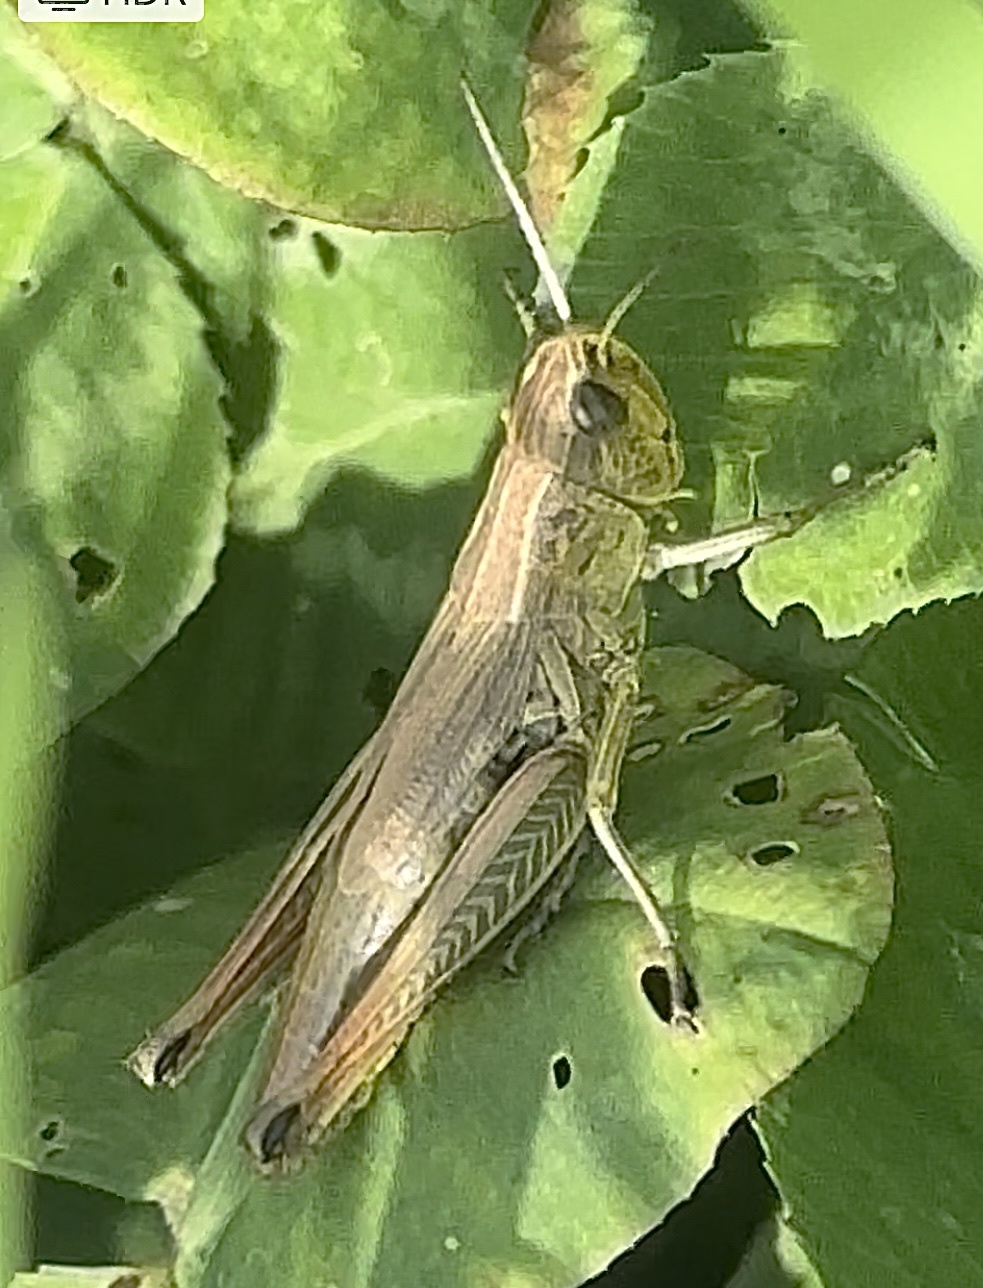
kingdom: Animalia
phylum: Arthropoda
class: Insecta
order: Orthoptera
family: Acrididae
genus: Pseudochorthippus
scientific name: Pseudochorthippus parallelus
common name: Meadow grasshopper
